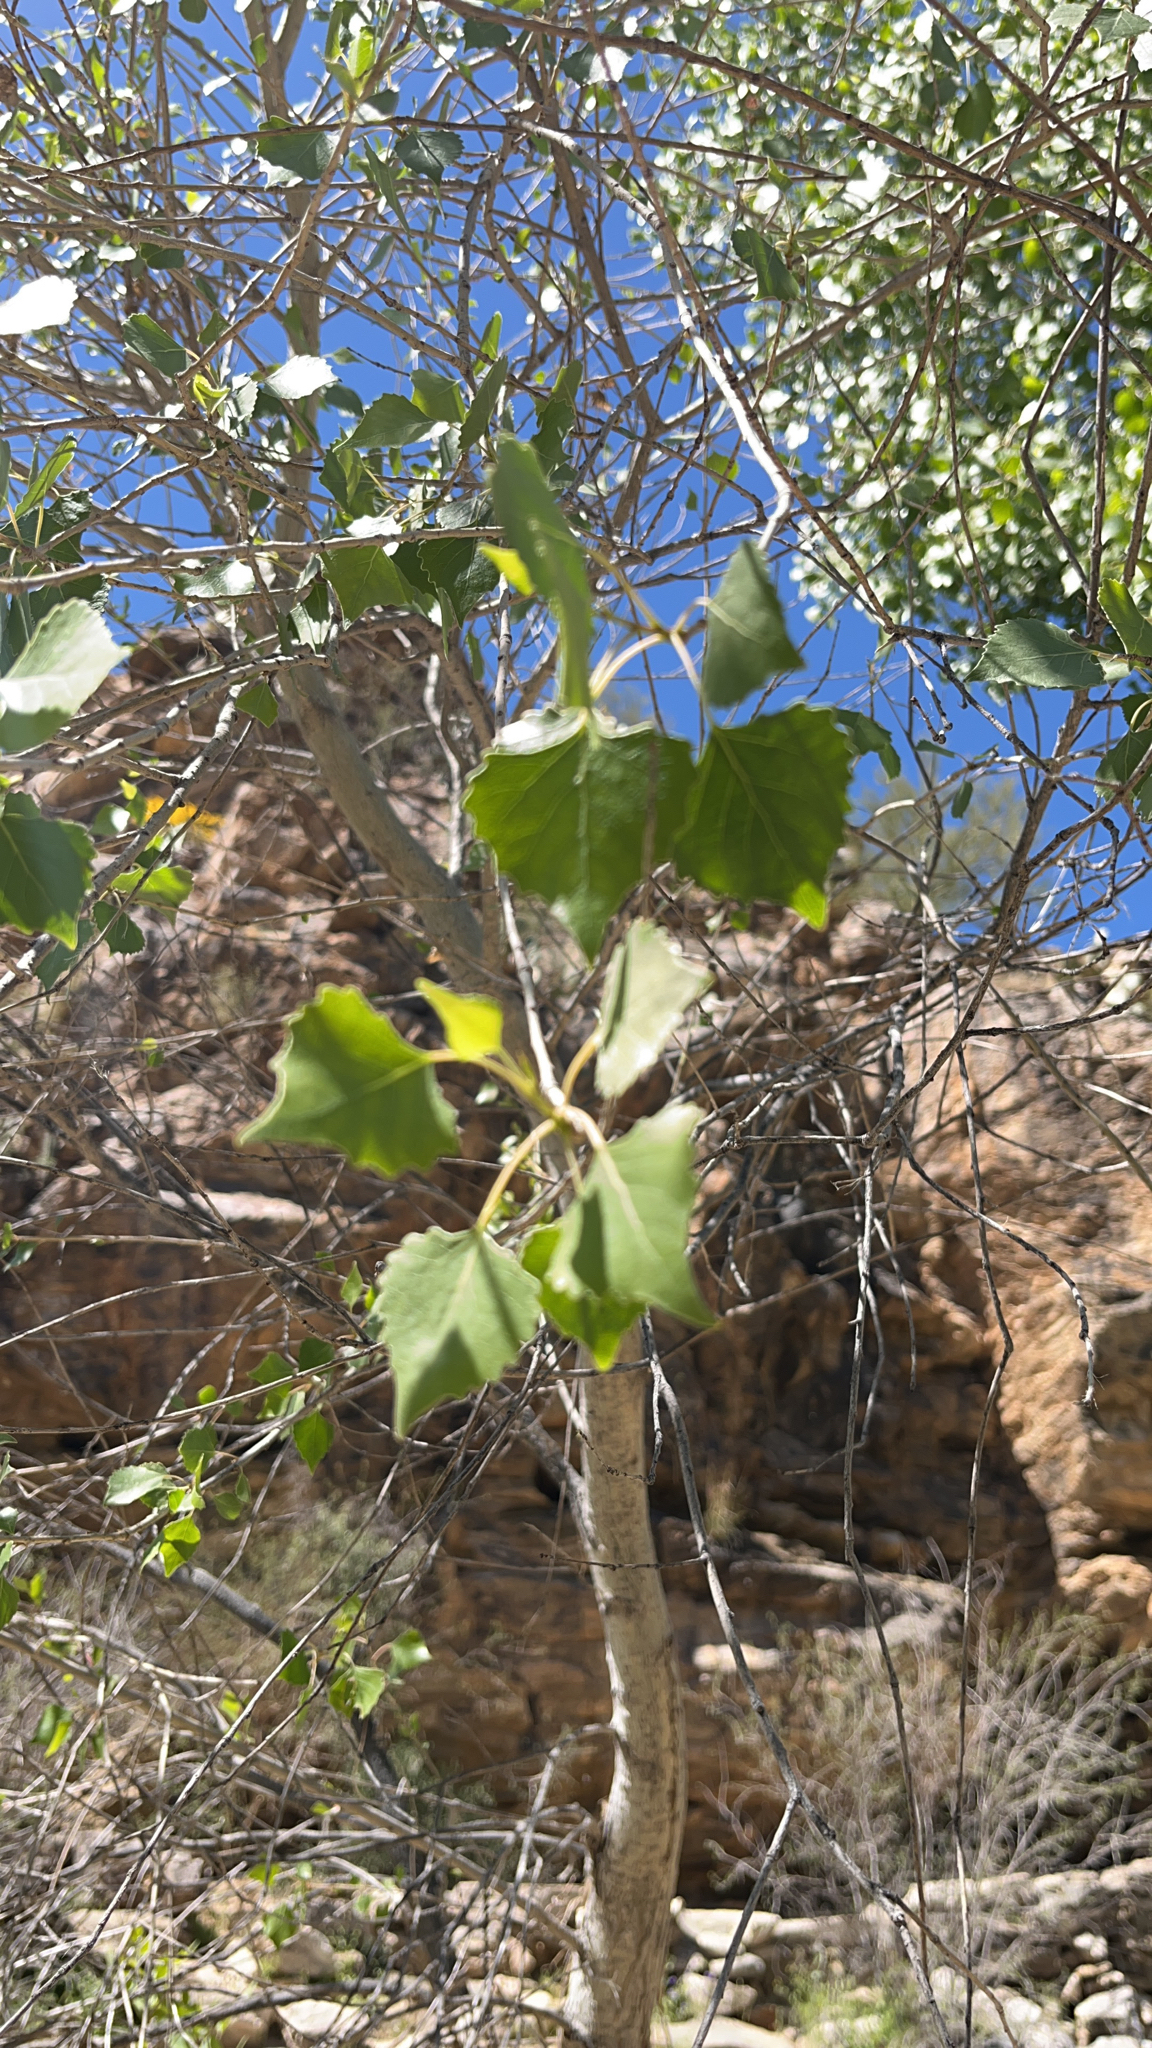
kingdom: Plantae
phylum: Tracheophyta
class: Magnoliopsida
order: Malpighiales
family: Salicaceae
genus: Populus
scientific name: Populus fremontii
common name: Fremont's cottonwood
